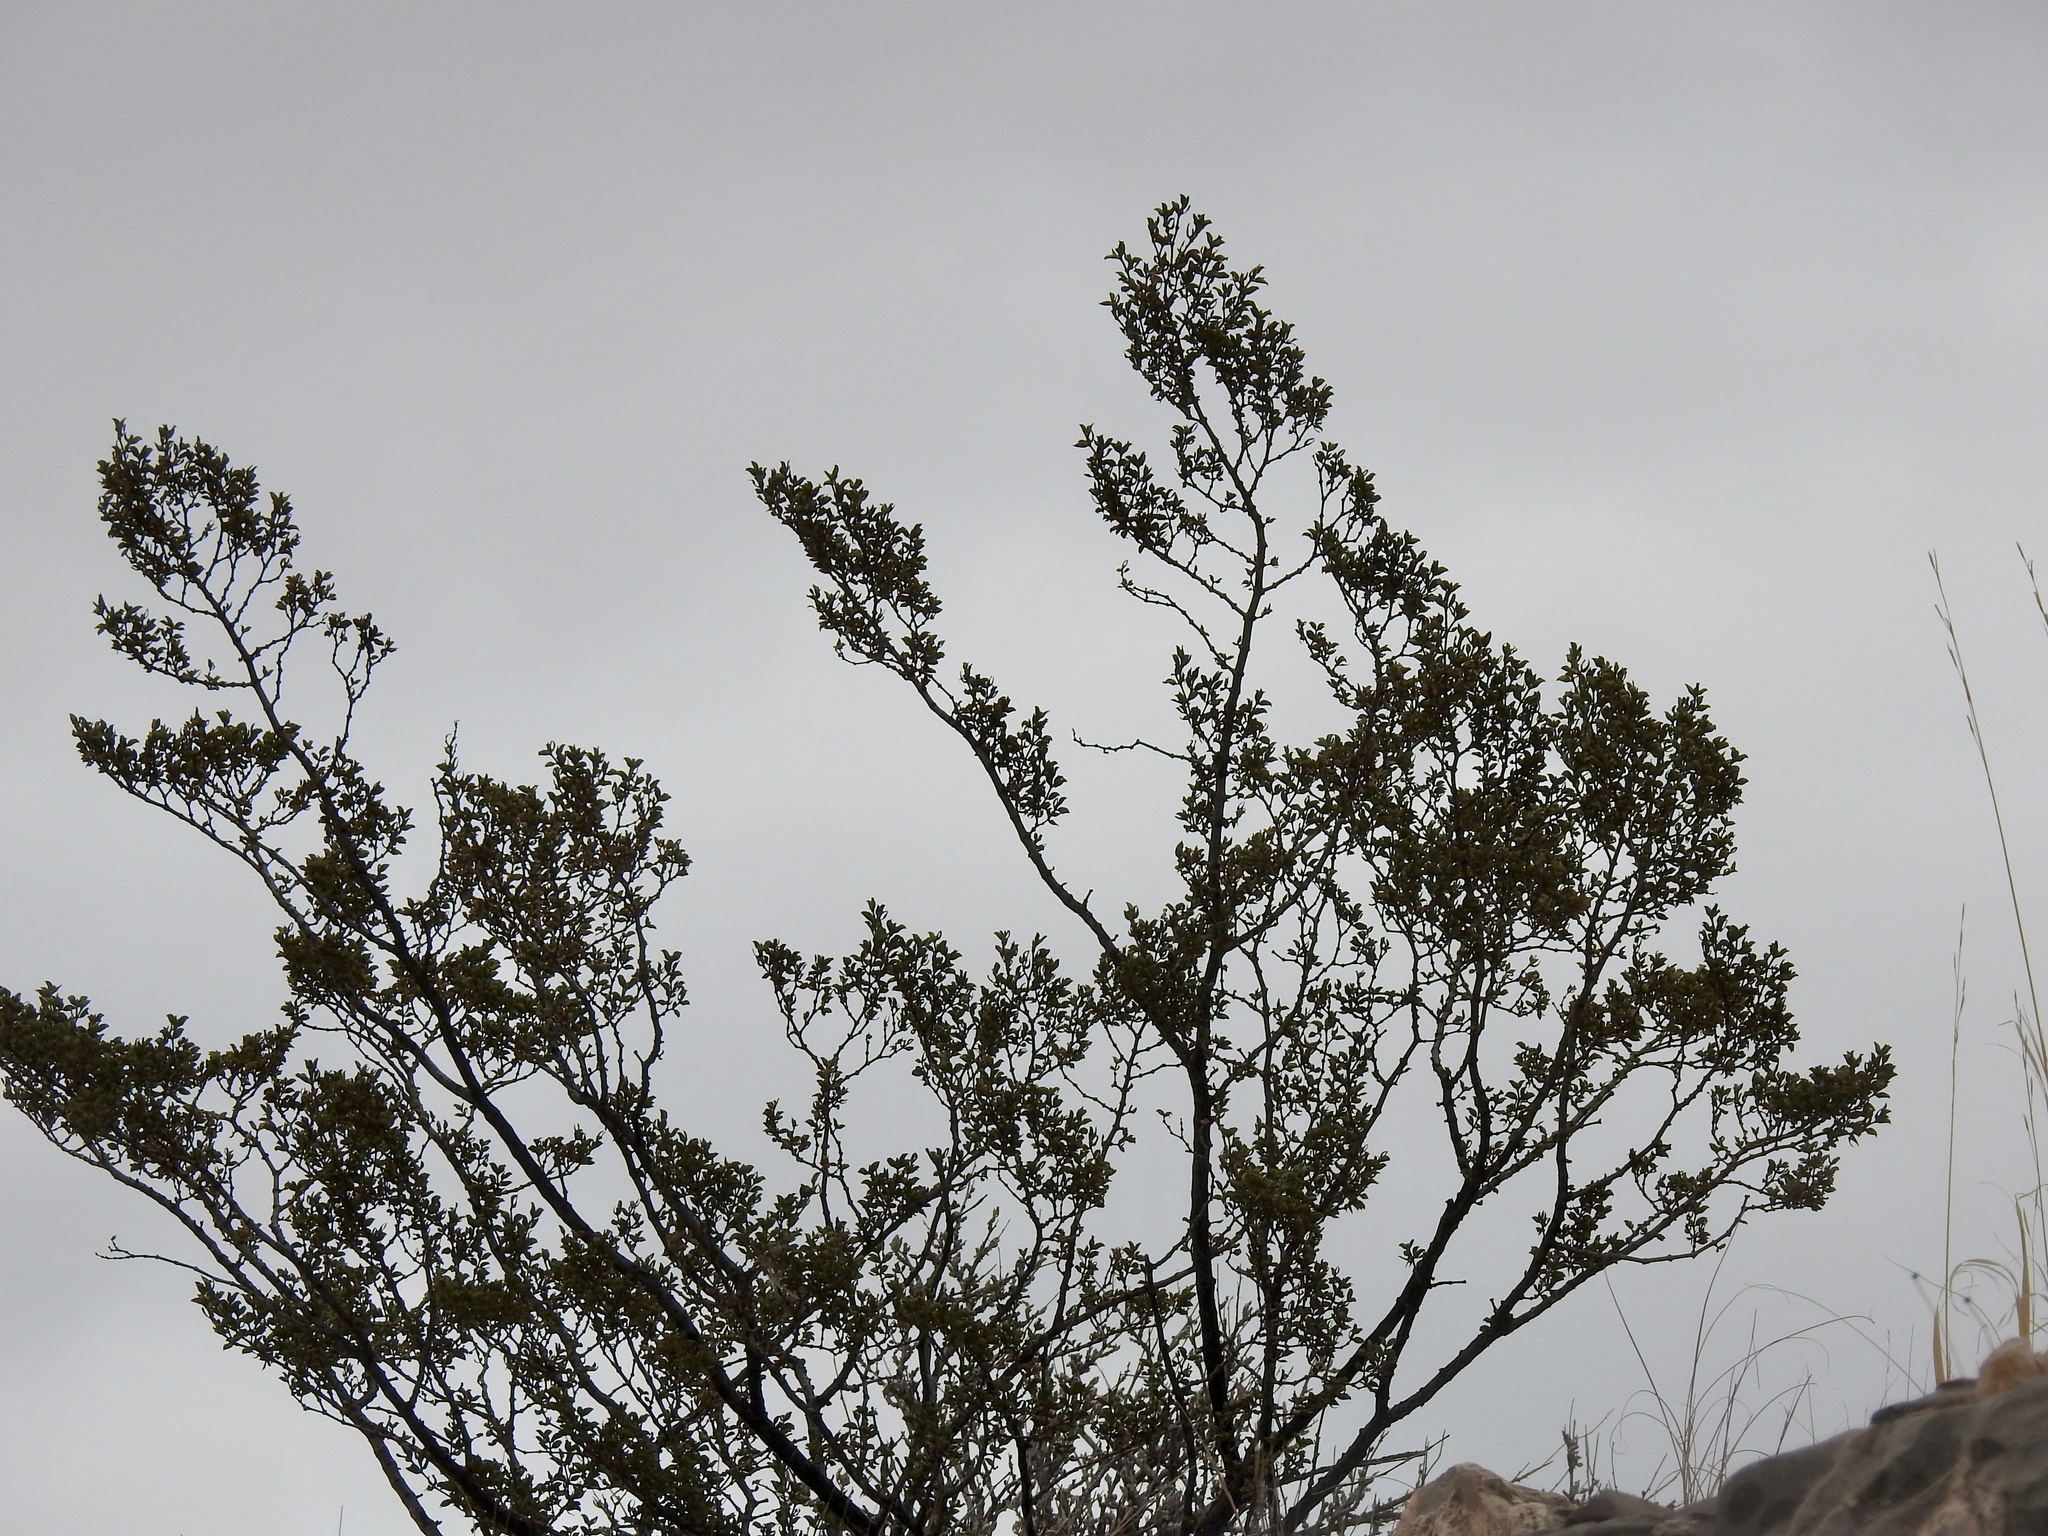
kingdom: Plantae
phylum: Tracheophyta
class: Magnoliopsida
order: Zygophyllales
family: Zygophyllaceae
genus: Larrea
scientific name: Larrea tridentata
